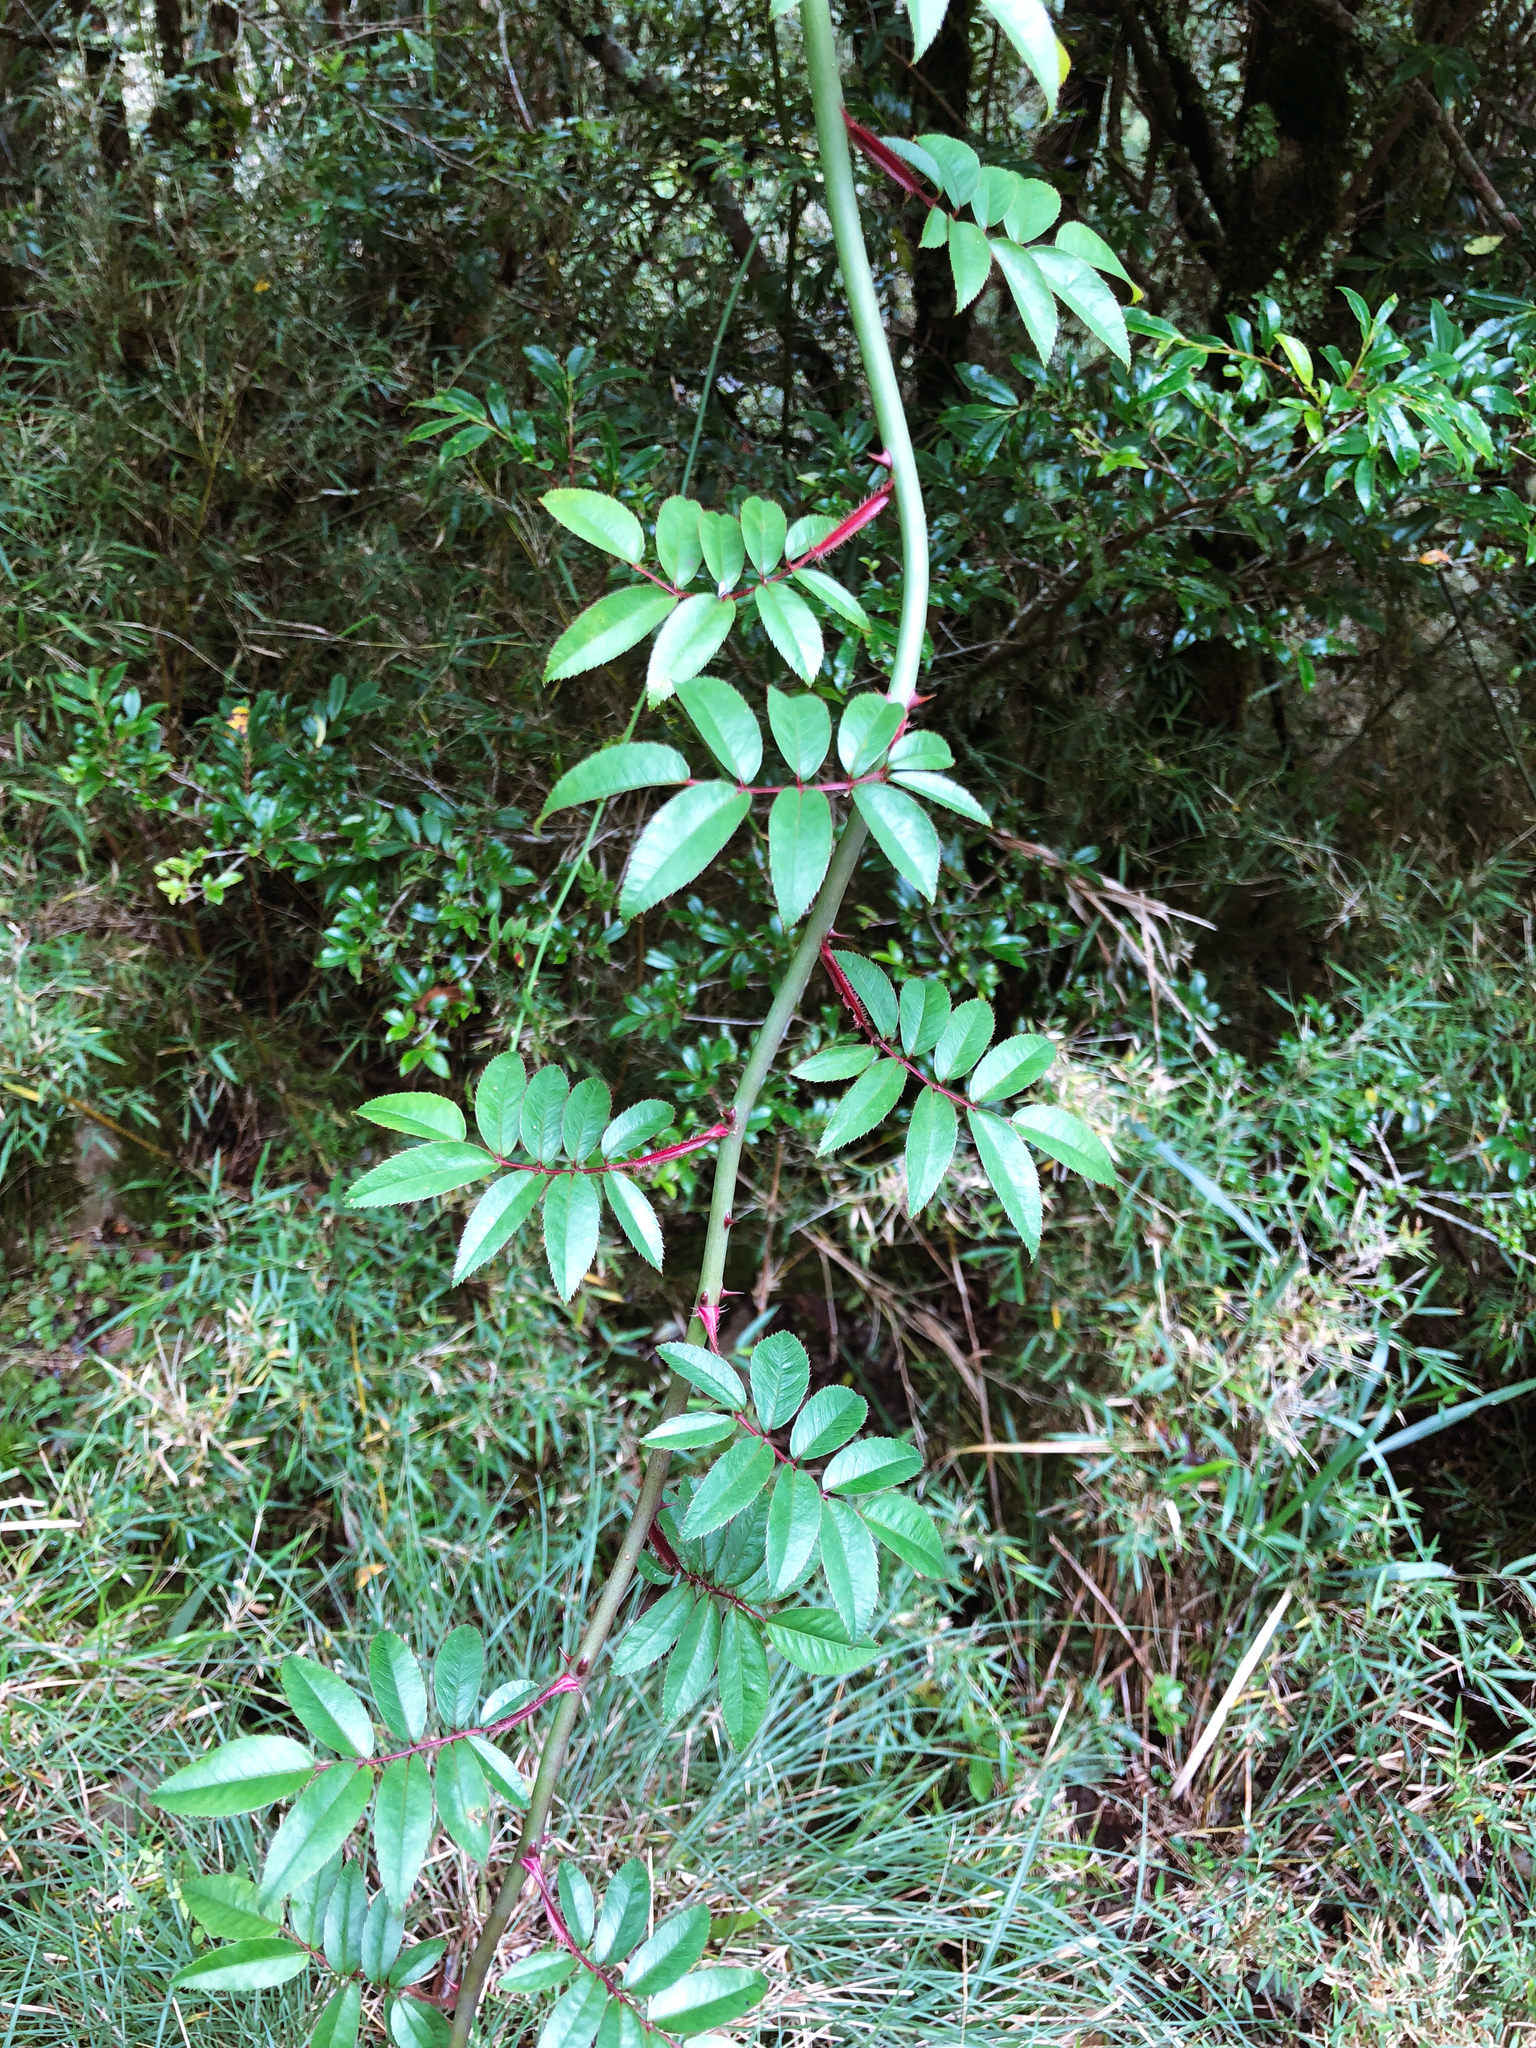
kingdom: Plantae
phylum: Tracheophyta
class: Magnoliopsida
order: Rosales
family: Rosaceae
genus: Rosa
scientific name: Rosa transmorrisonensis
